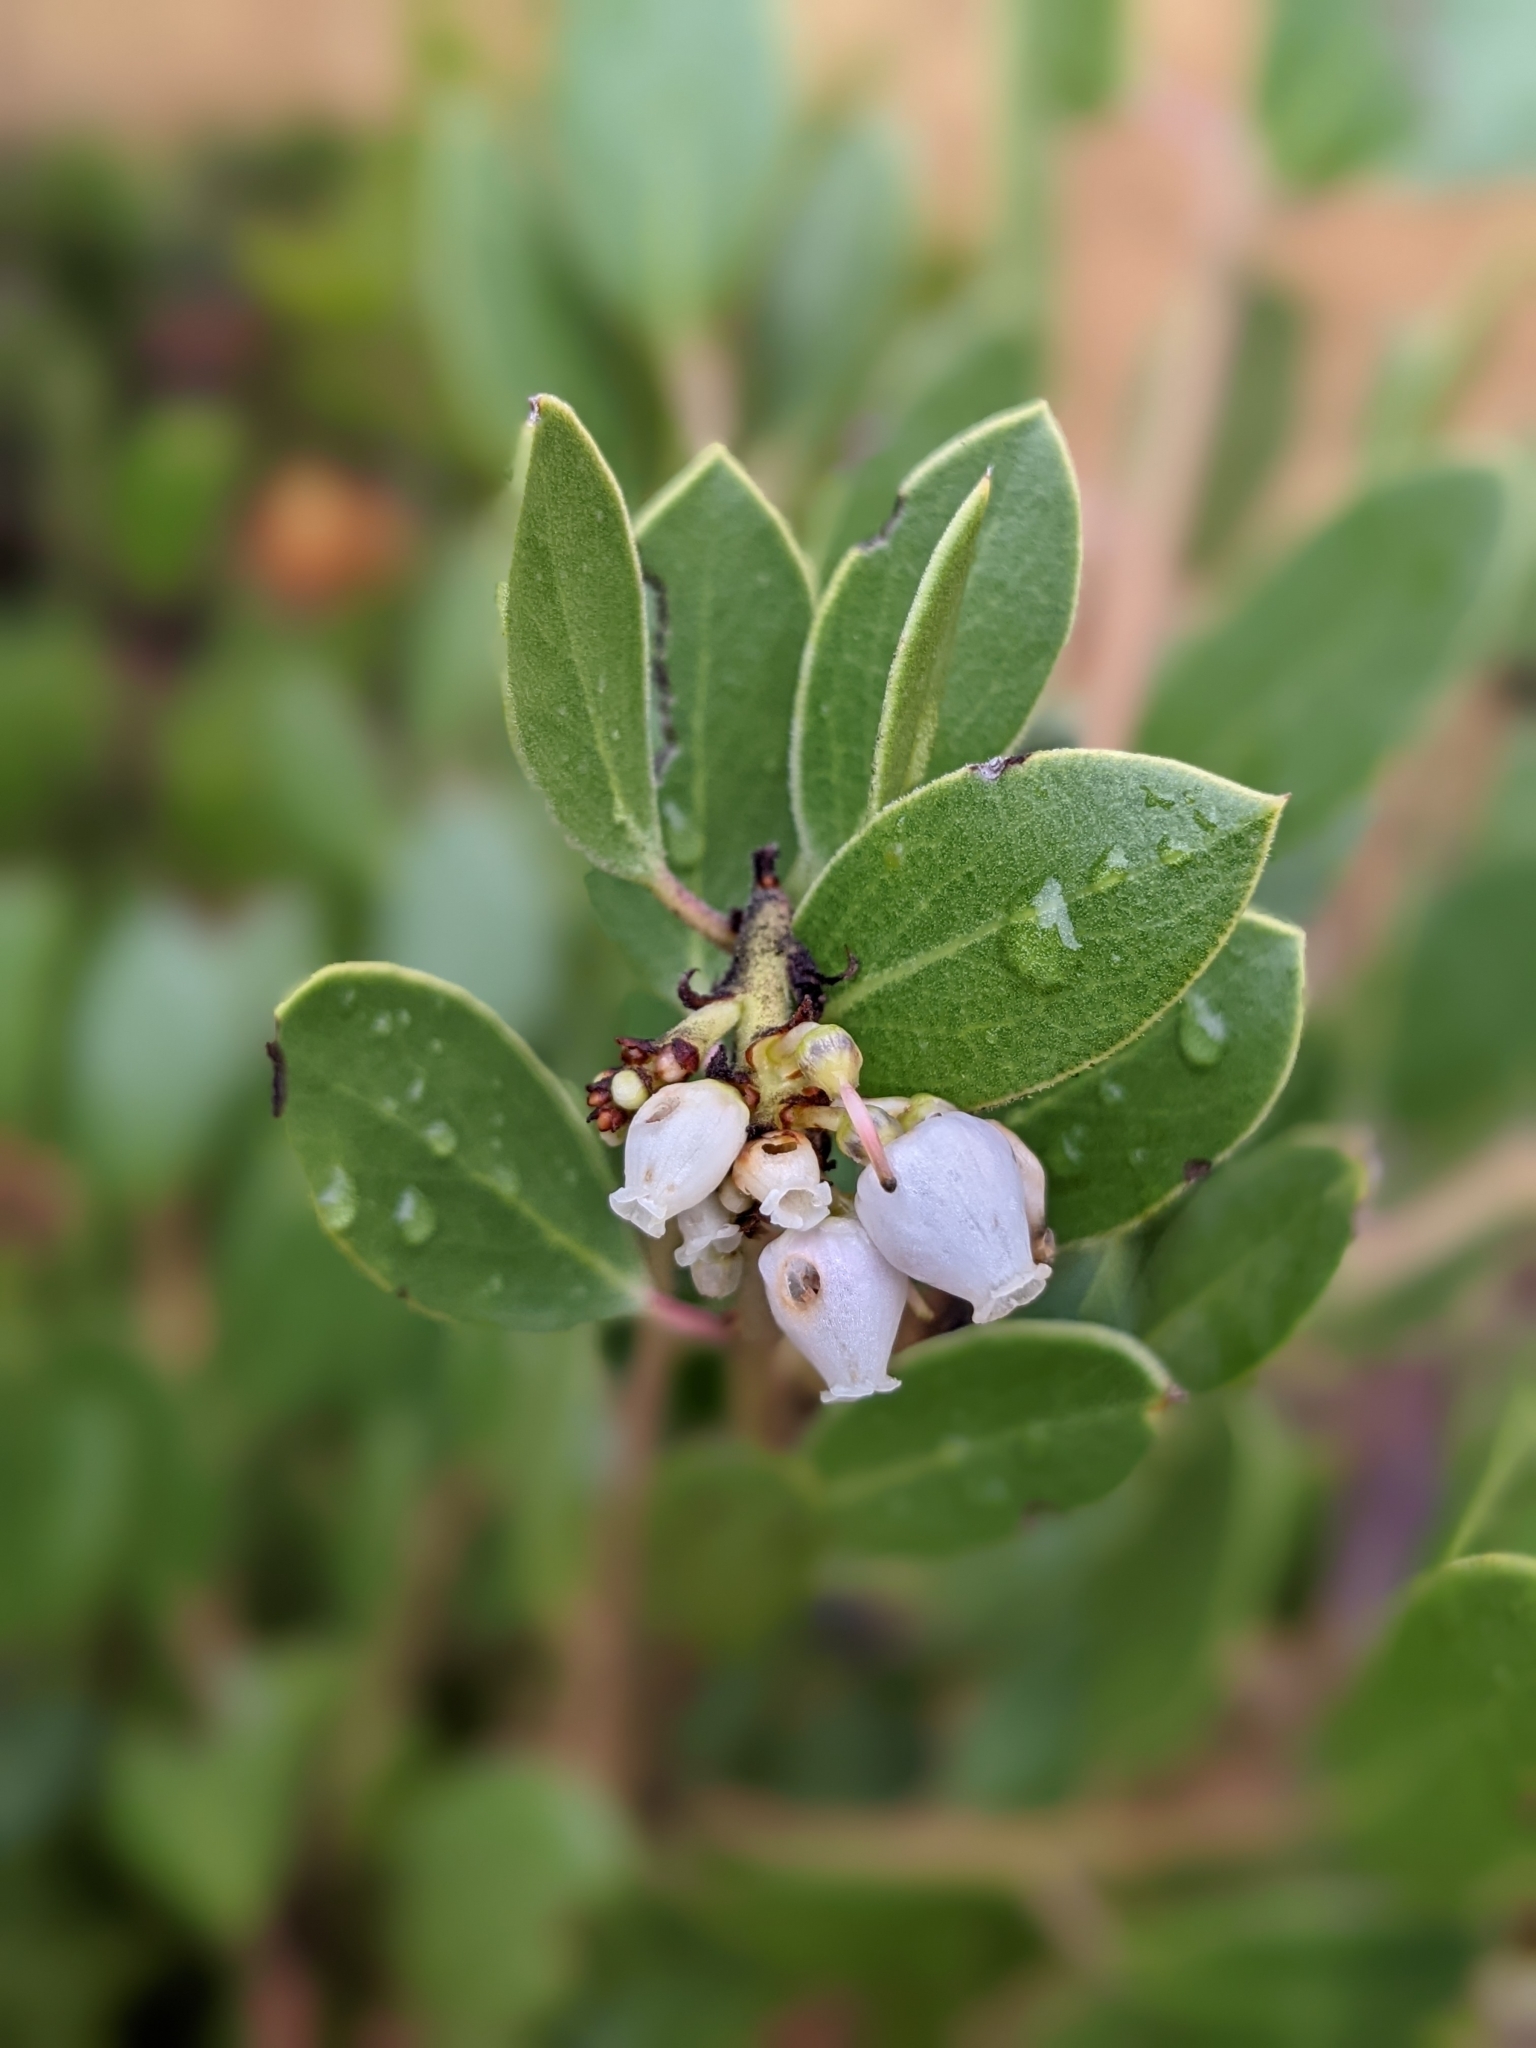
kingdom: Plantae
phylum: Tracheophyta
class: Magnoliopsida
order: Ericales
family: Ericaceae
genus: Arctostaphylos
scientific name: Arctostaphylos manzanita
